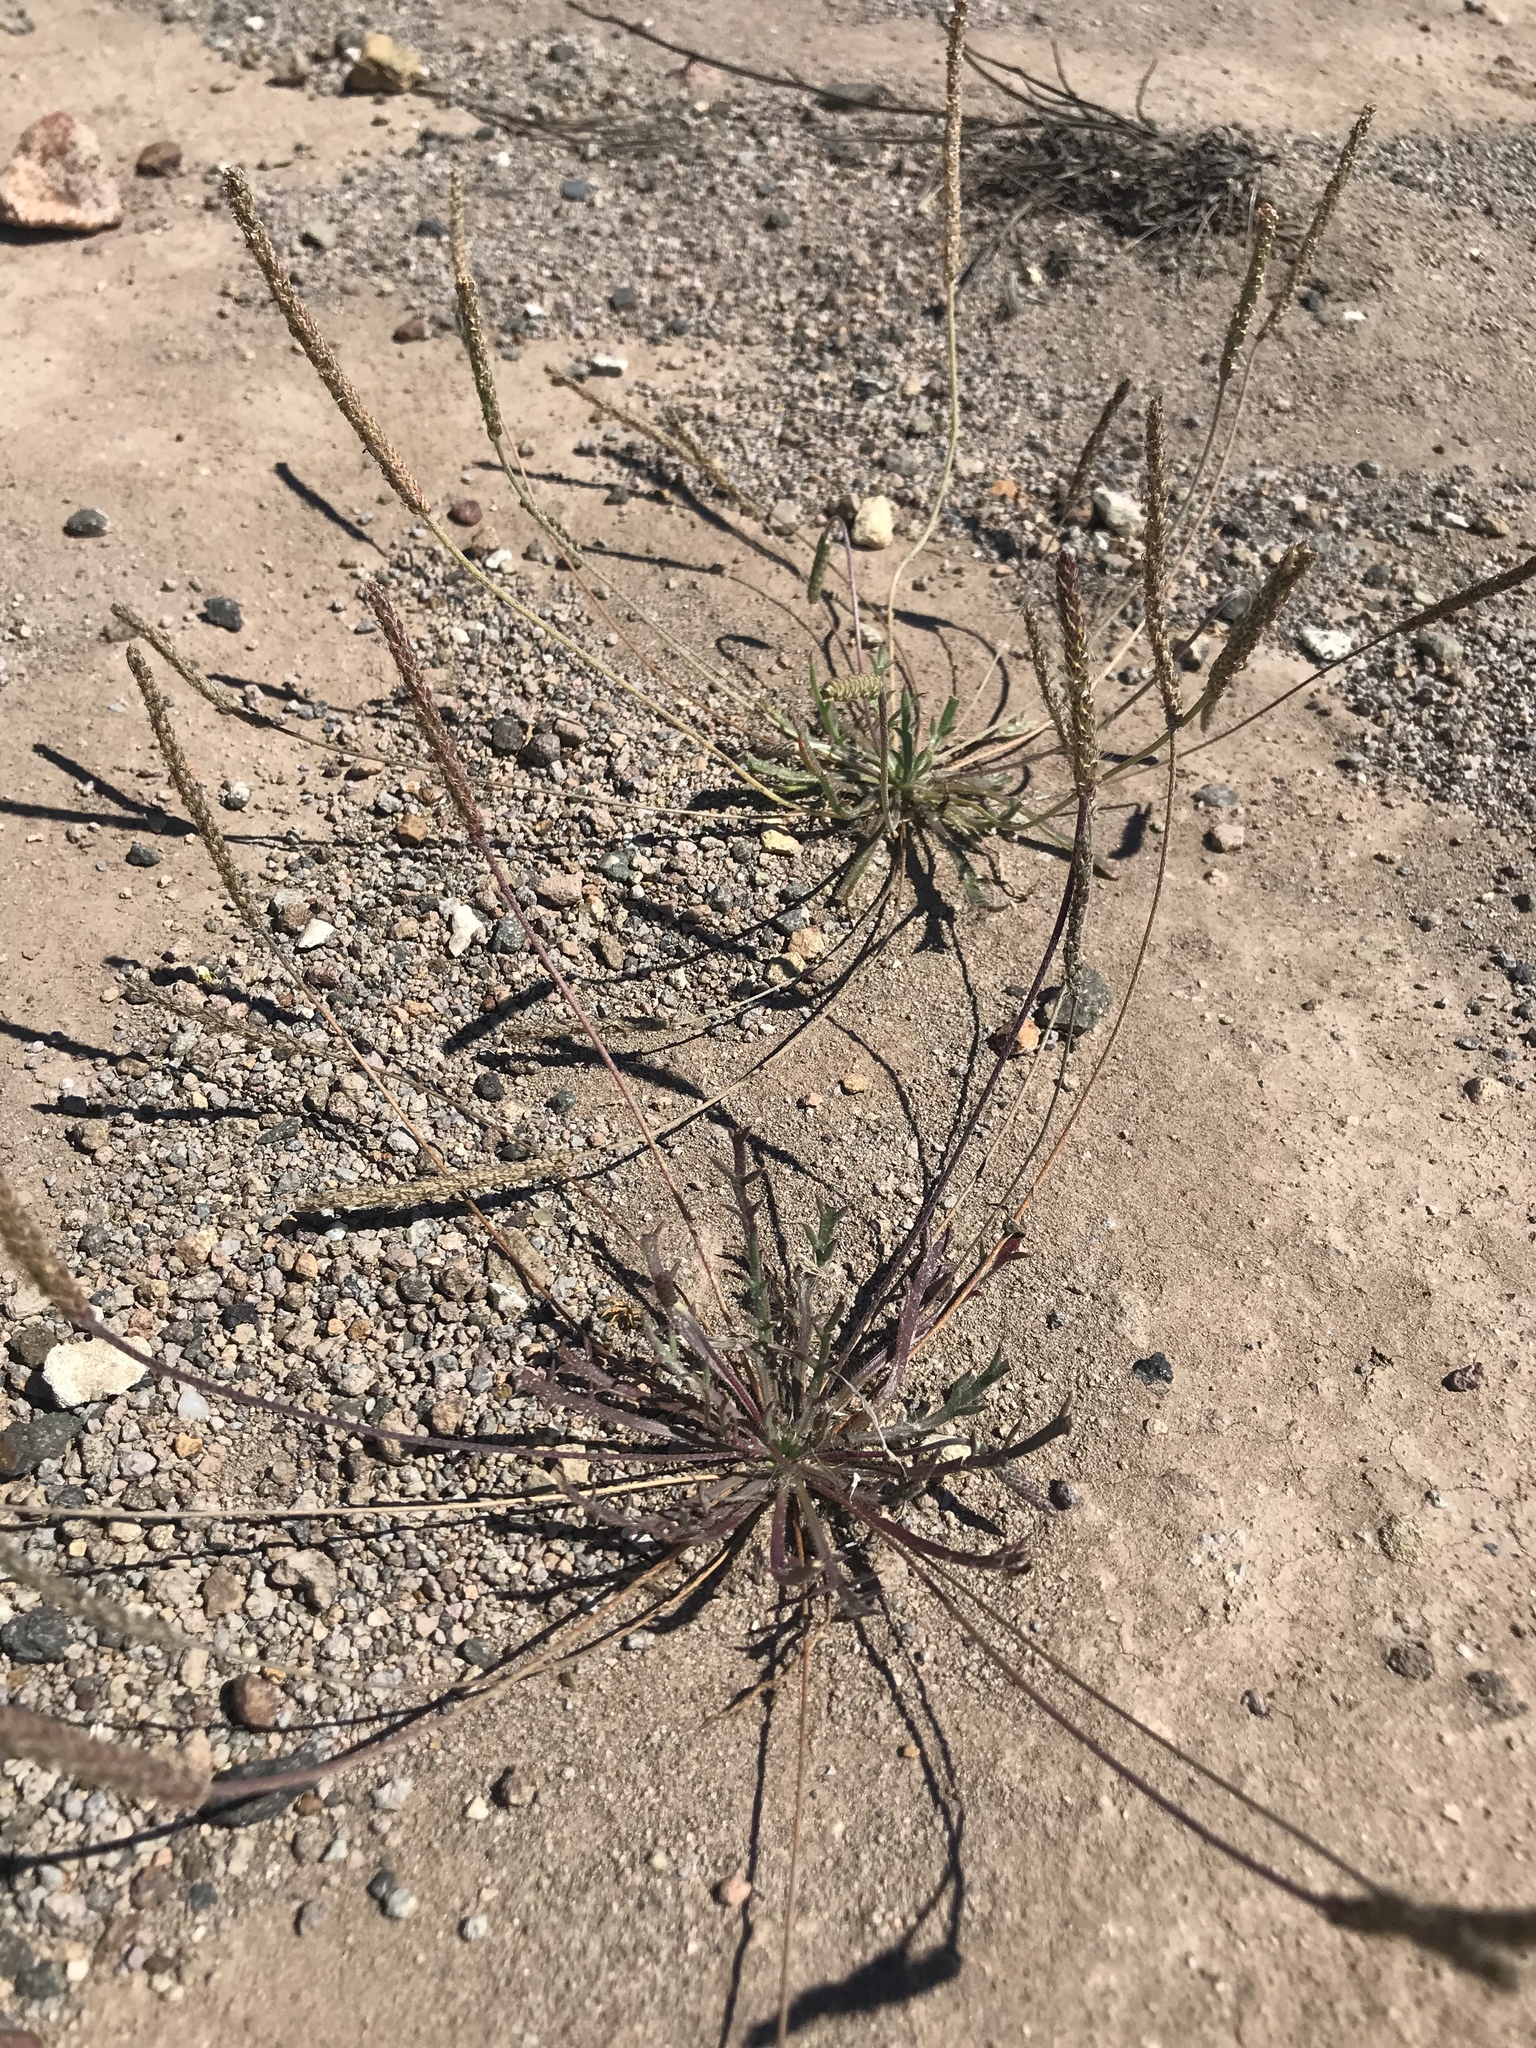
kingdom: Plantae
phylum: Tracheophyta
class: Magnoliopsida
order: Lamiales
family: Plantaginaceae
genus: Plantago
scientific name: Plantago coronopus
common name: Buck's-horn plantain
